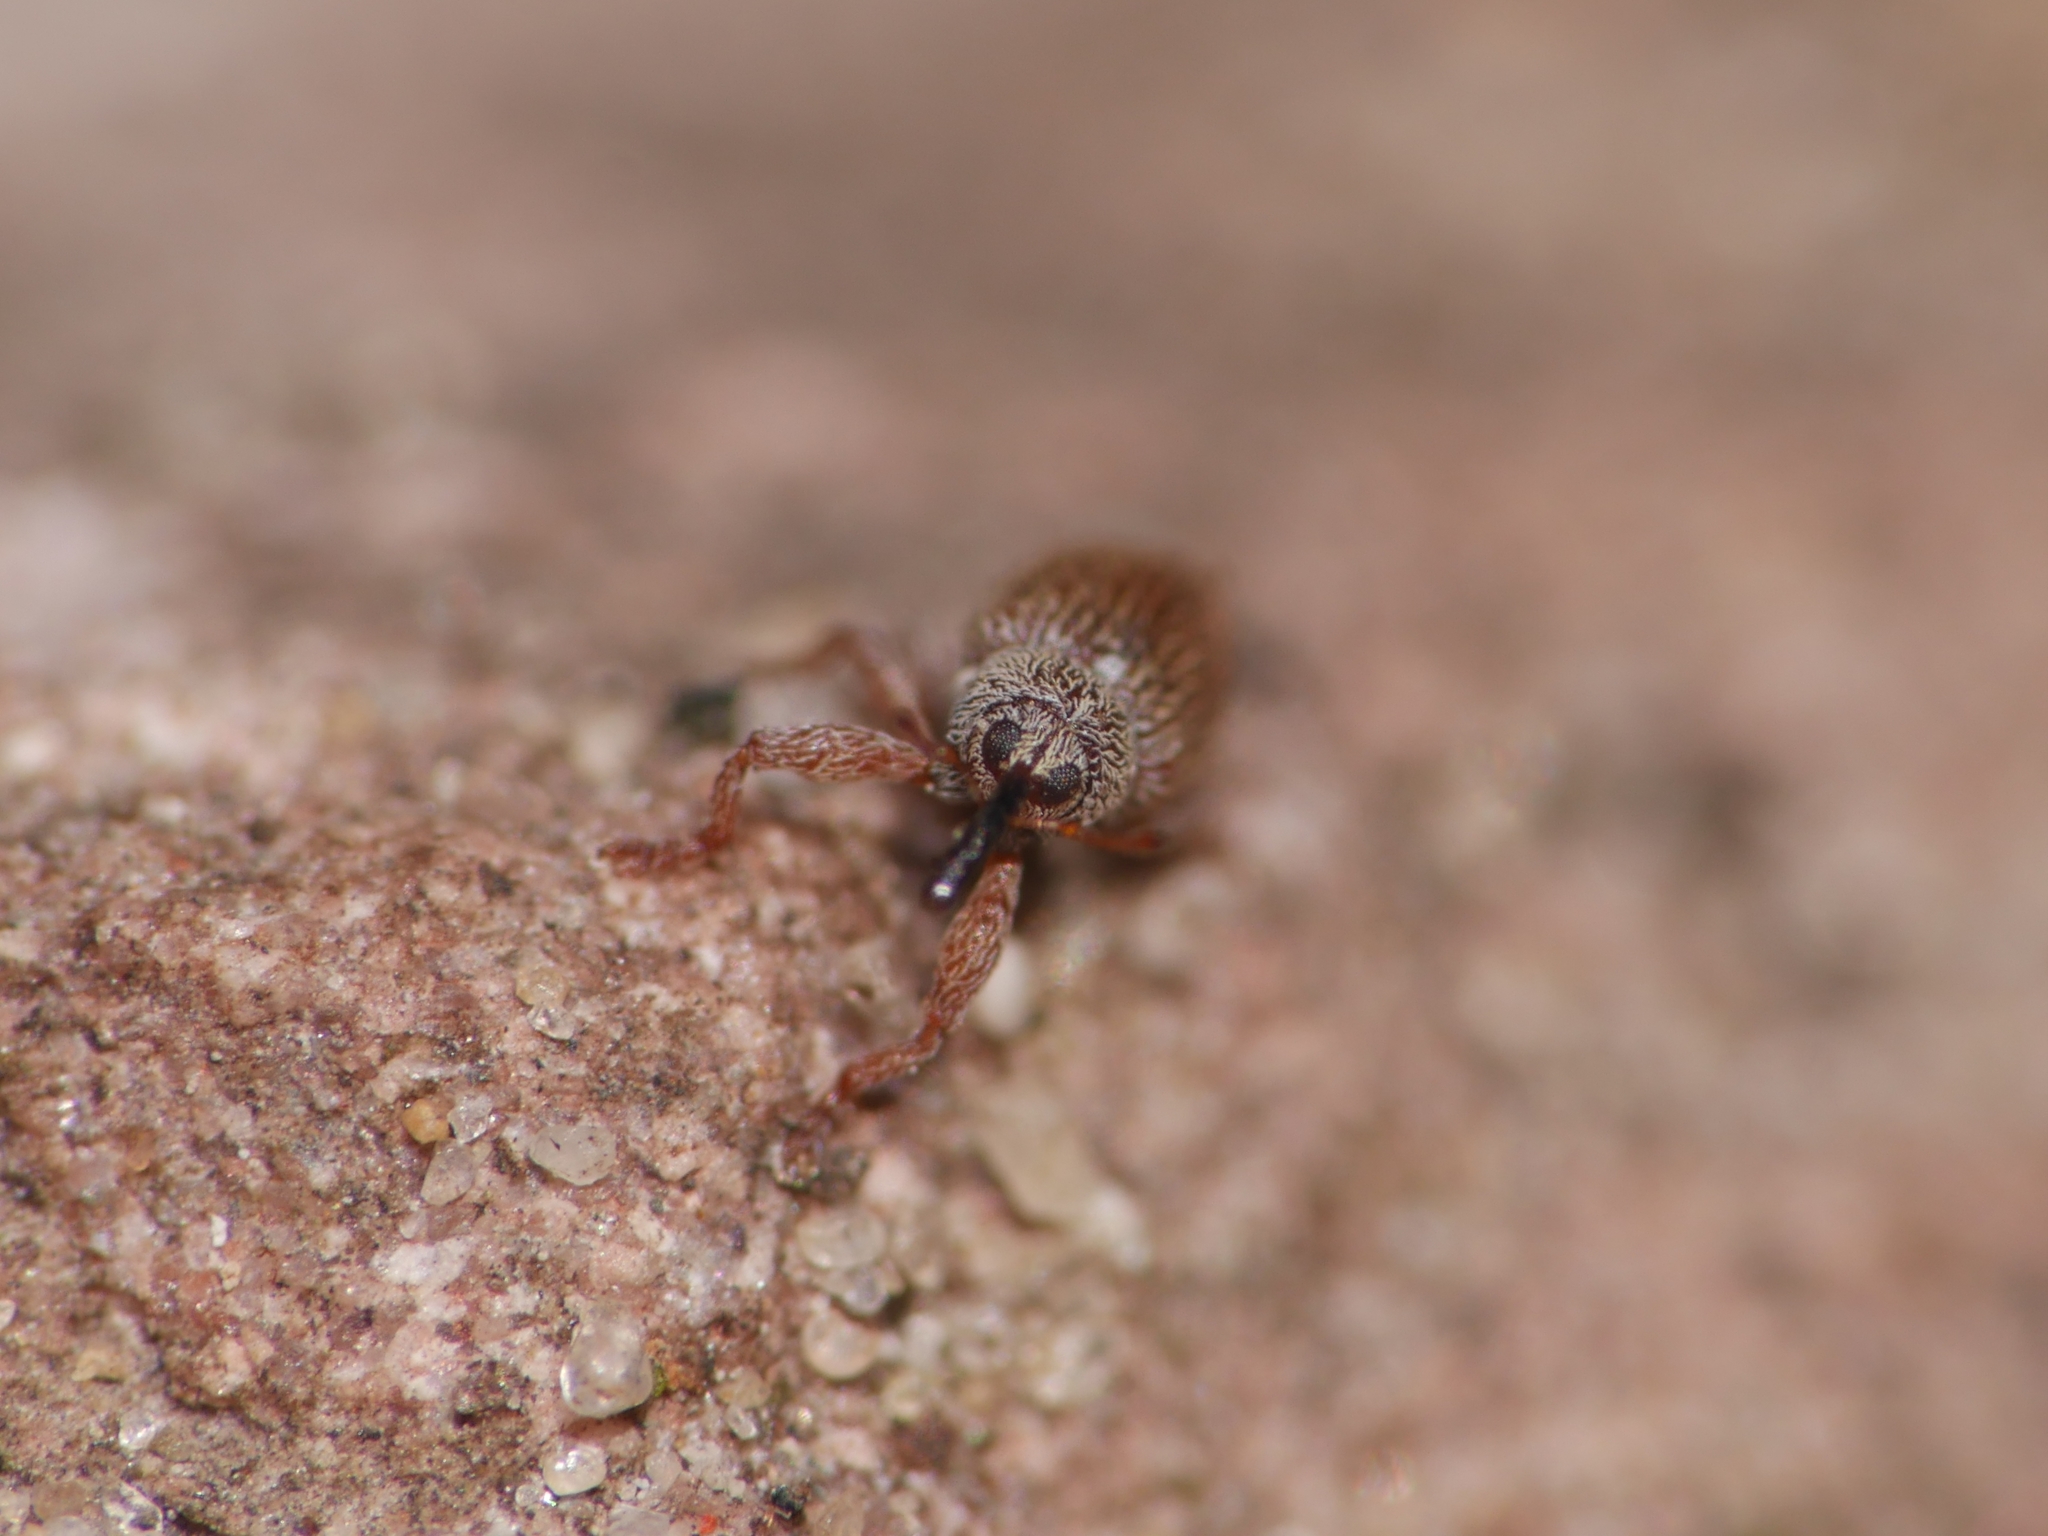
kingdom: Animalia
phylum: Arthropoda
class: Insecta
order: Coleoptera
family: Curculionidae
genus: Brachonyx
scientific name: Brachonyx pineti
